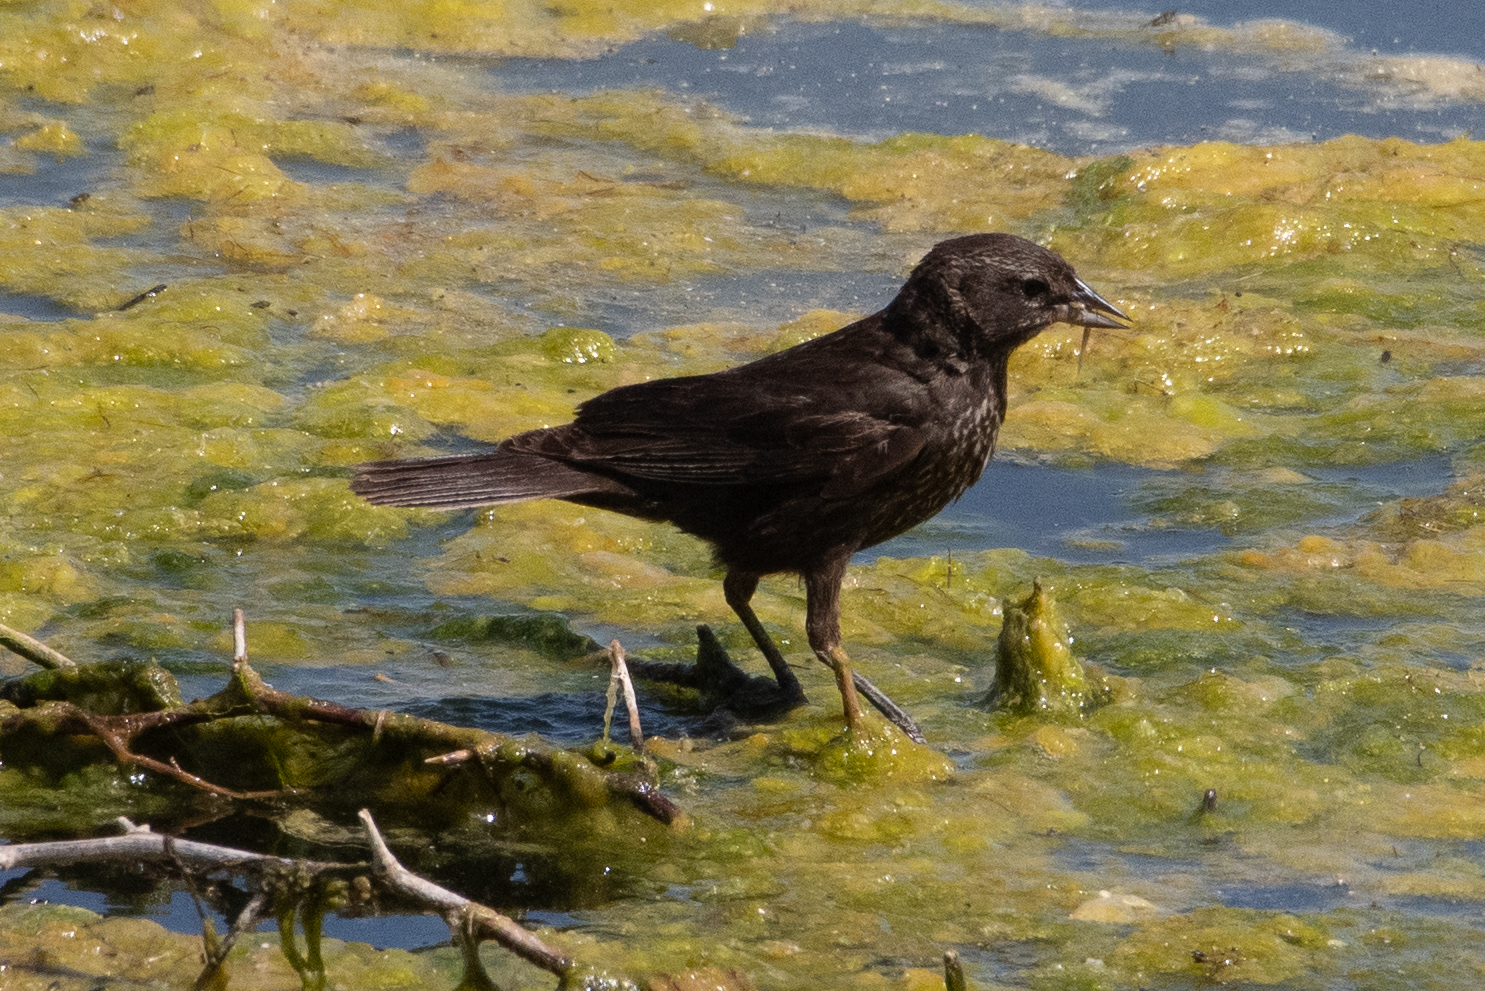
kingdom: Animalia
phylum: Chordata
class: Aves
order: Passeriformes
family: Icteridae
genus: Agelaius
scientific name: Agelaius tricolor
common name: Tricolored blackbird
